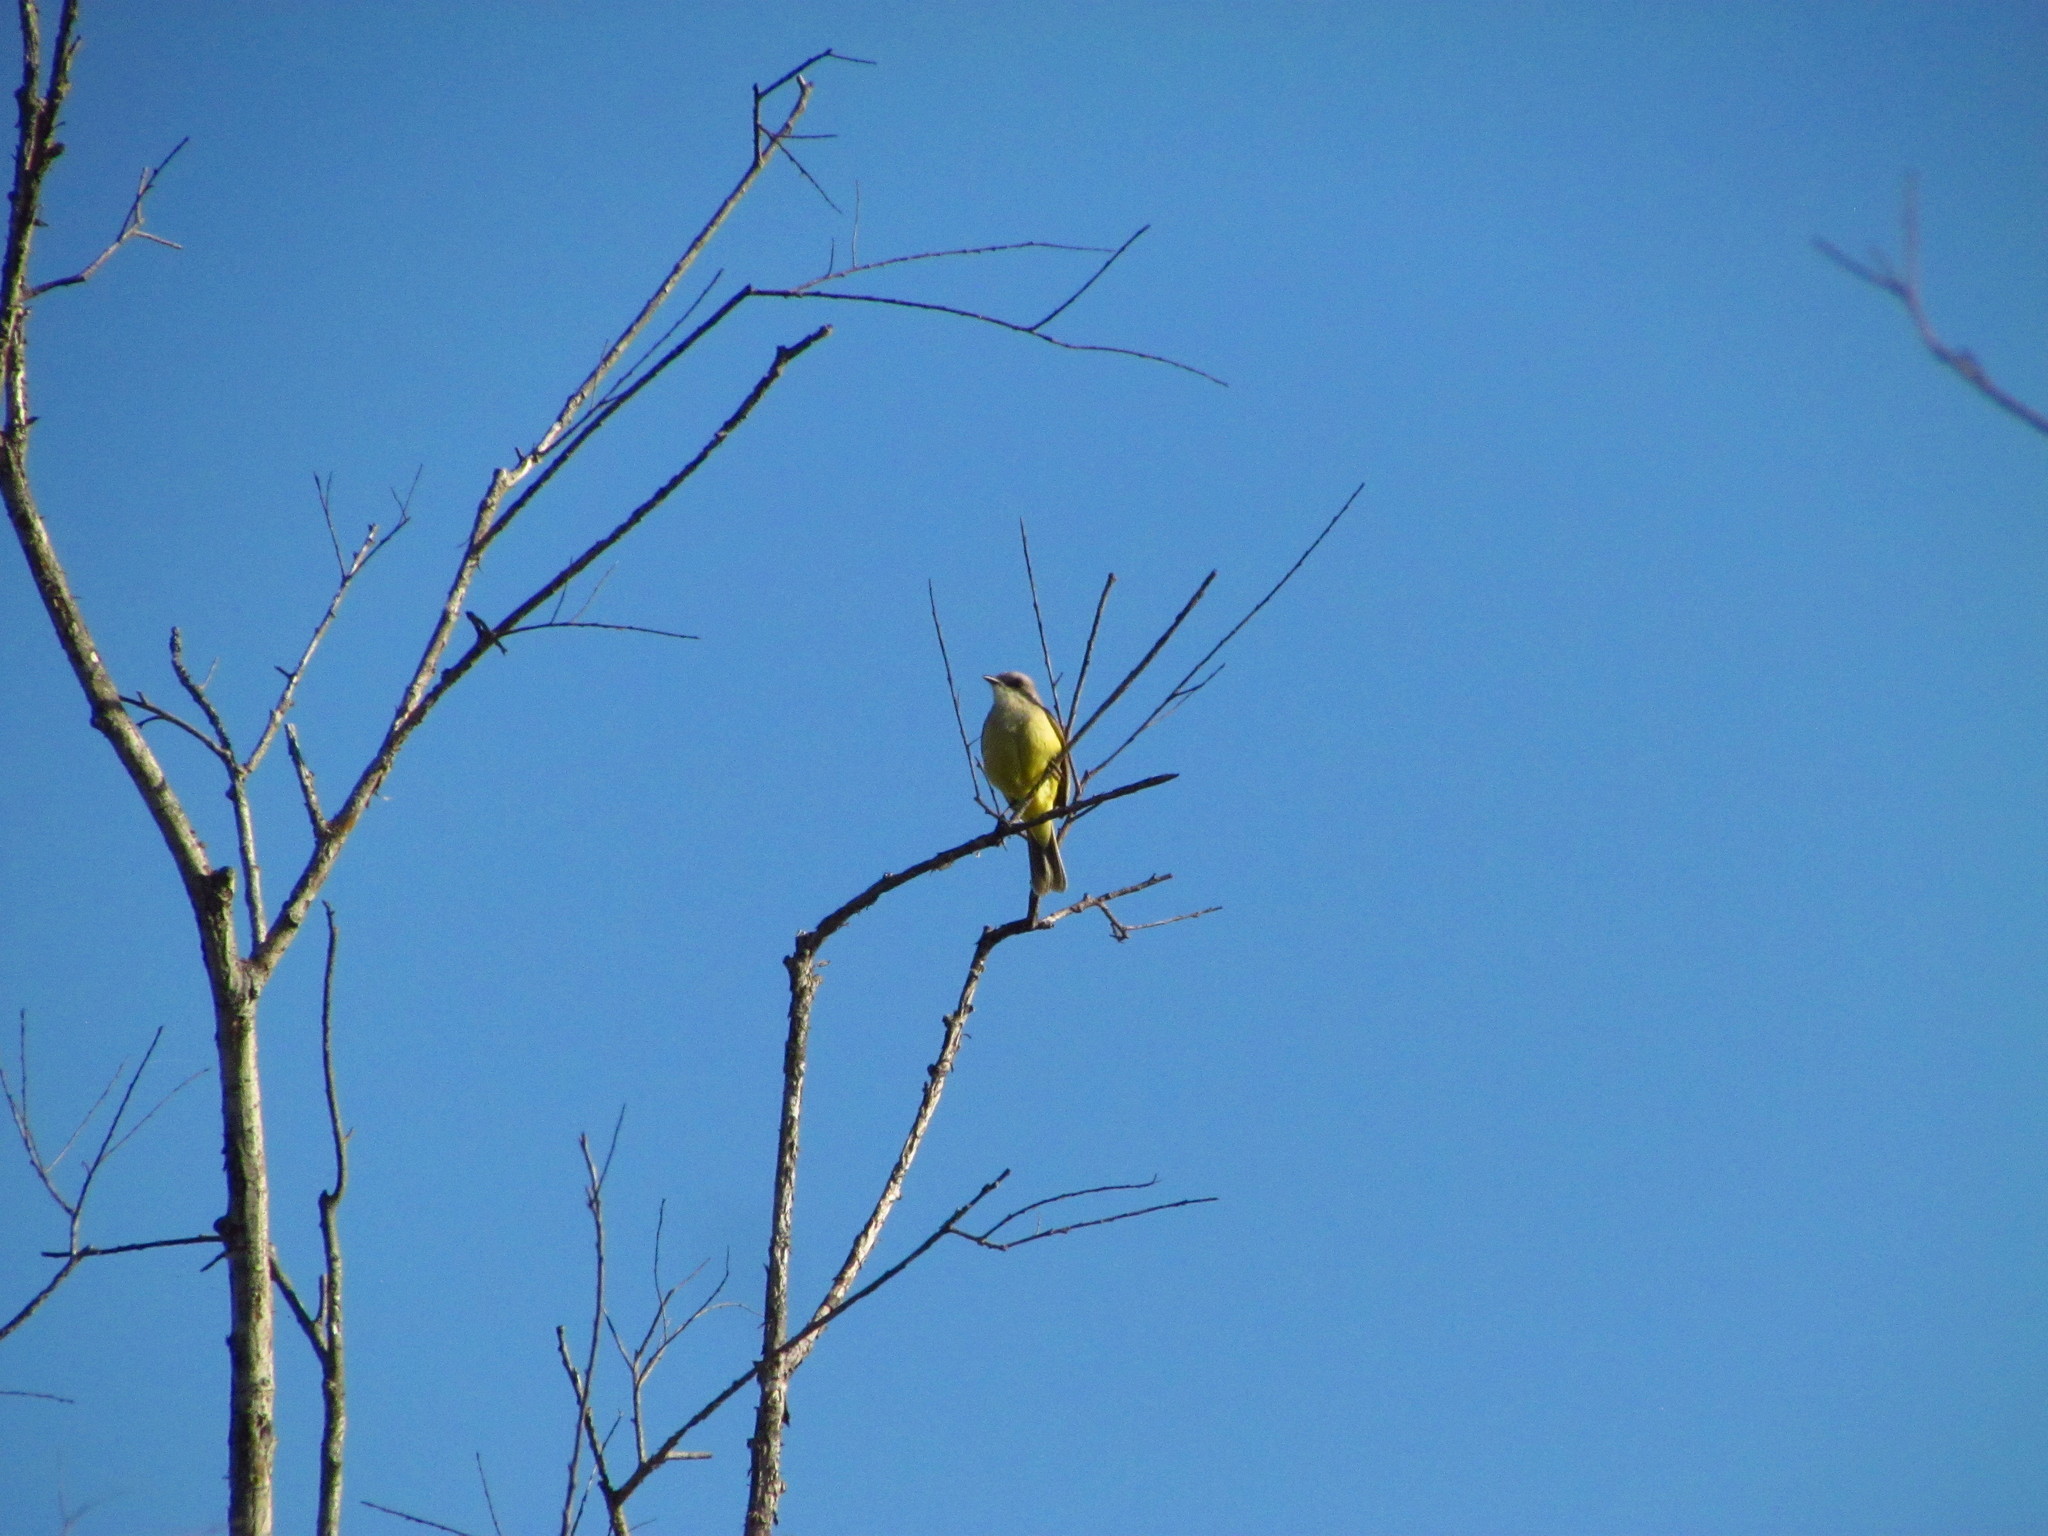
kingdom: Animalia
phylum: Chordata
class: Aves
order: Passeriformes
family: Tyrannidae
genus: Tyrannus
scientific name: Tyrannus melancholicus
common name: Tropical kingbird
